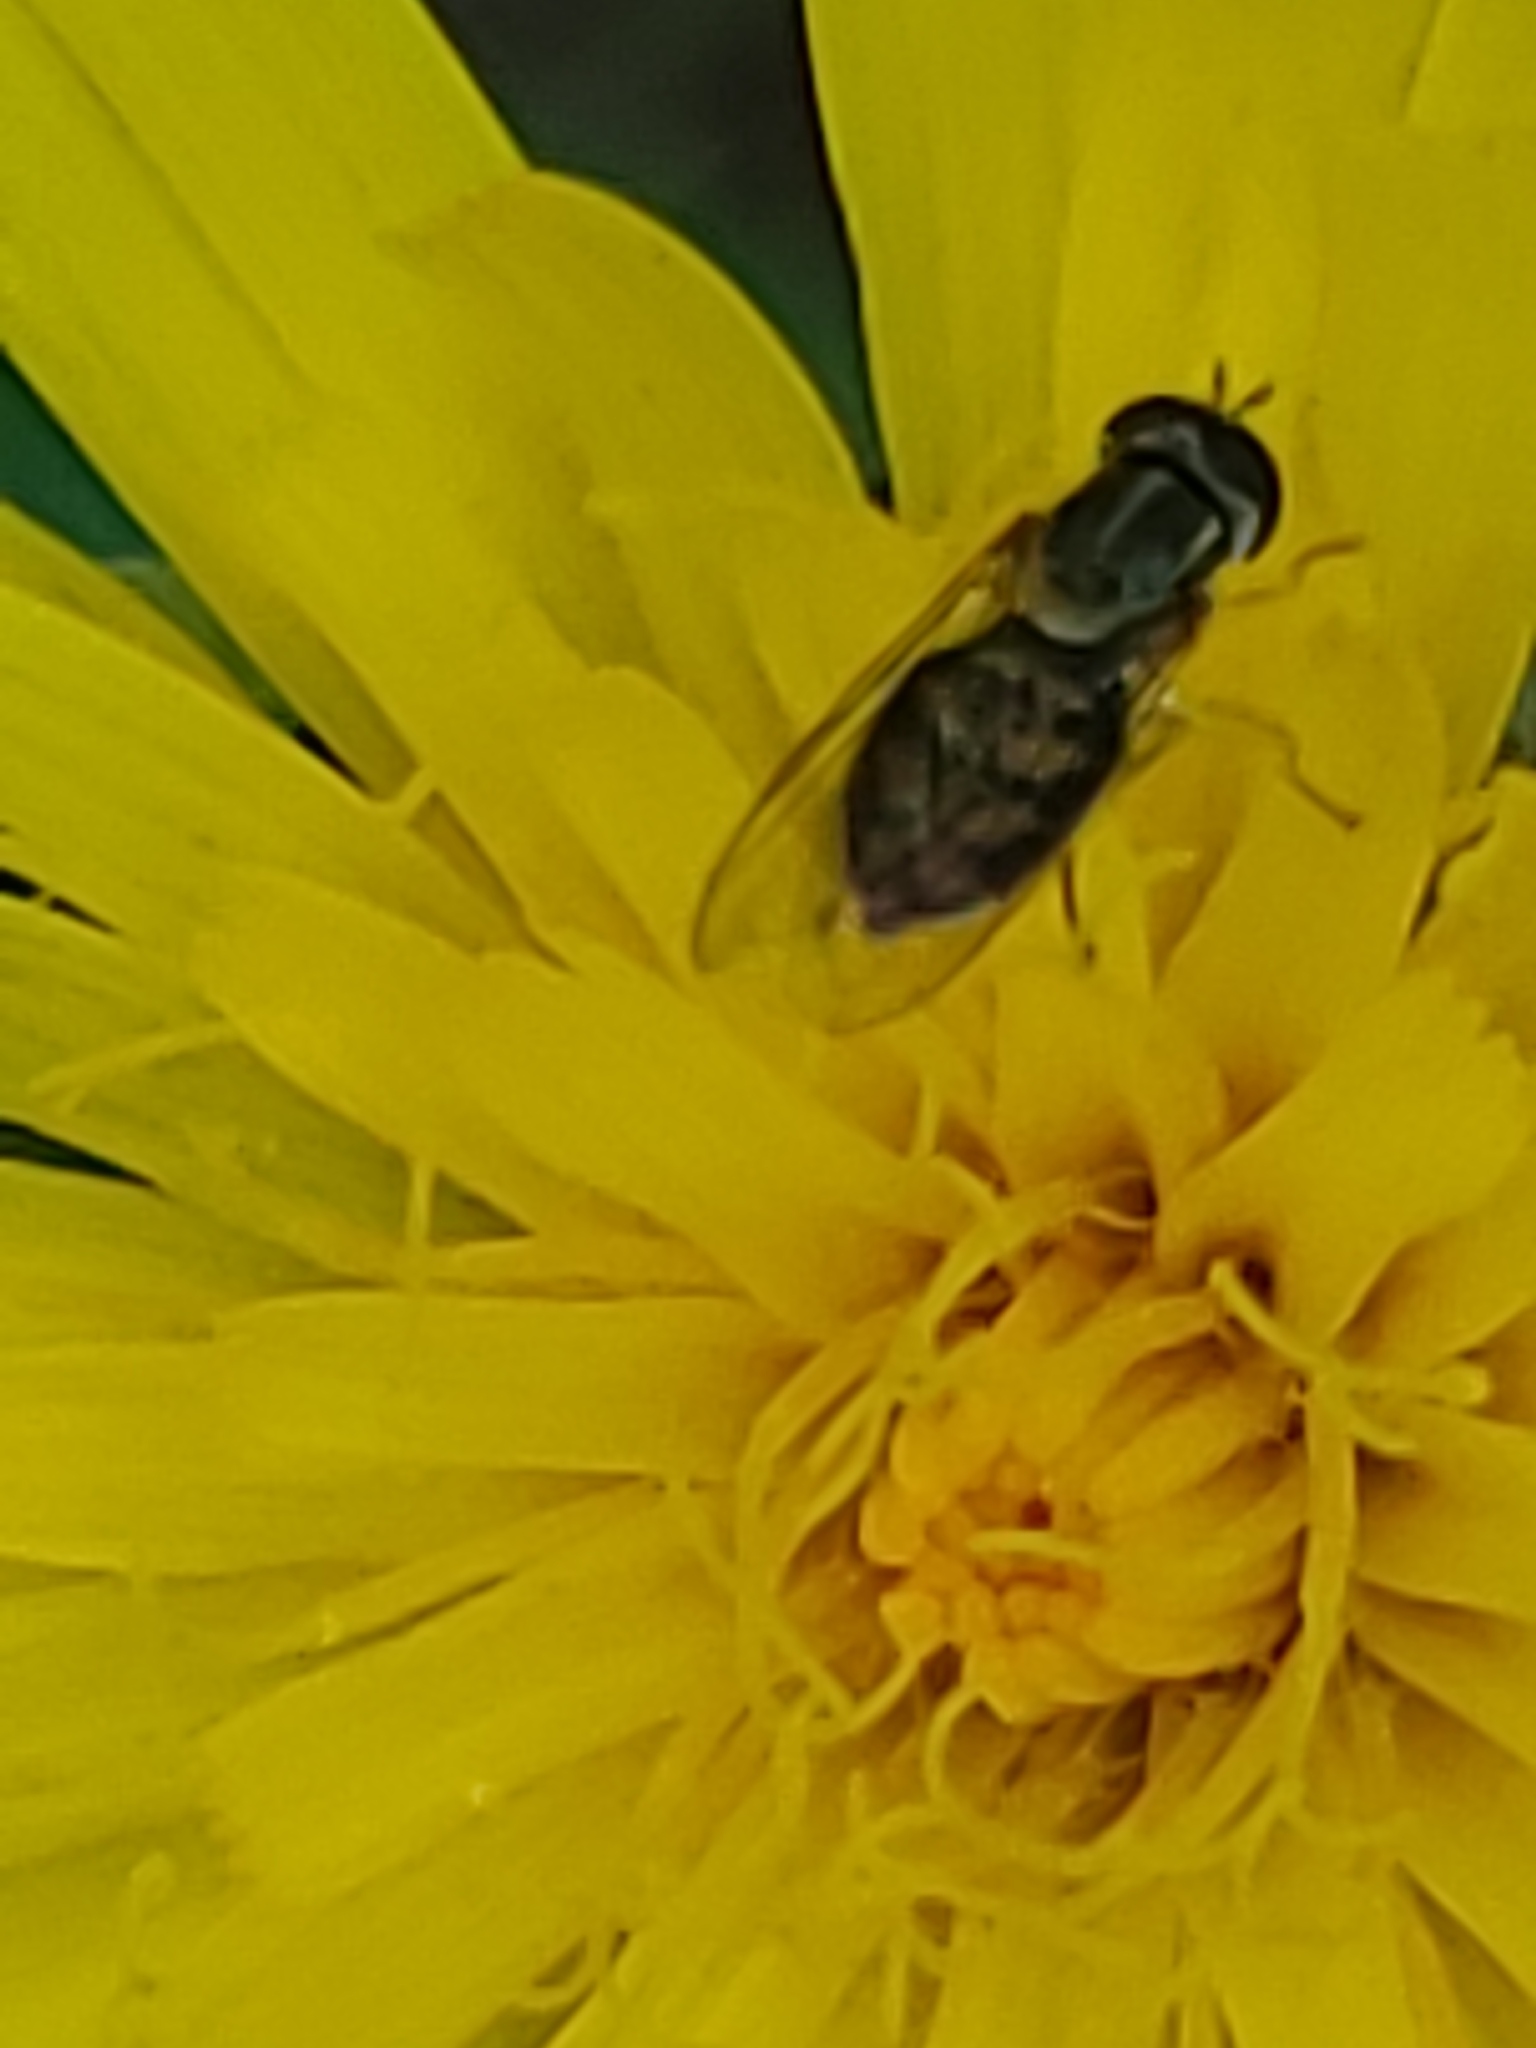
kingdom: Animalia
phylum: Arthropoda
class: Insecta
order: Diptera
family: Syrphidae
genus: Toxomerus
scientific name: Toxomerus marginatus
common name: Syrphid fly
